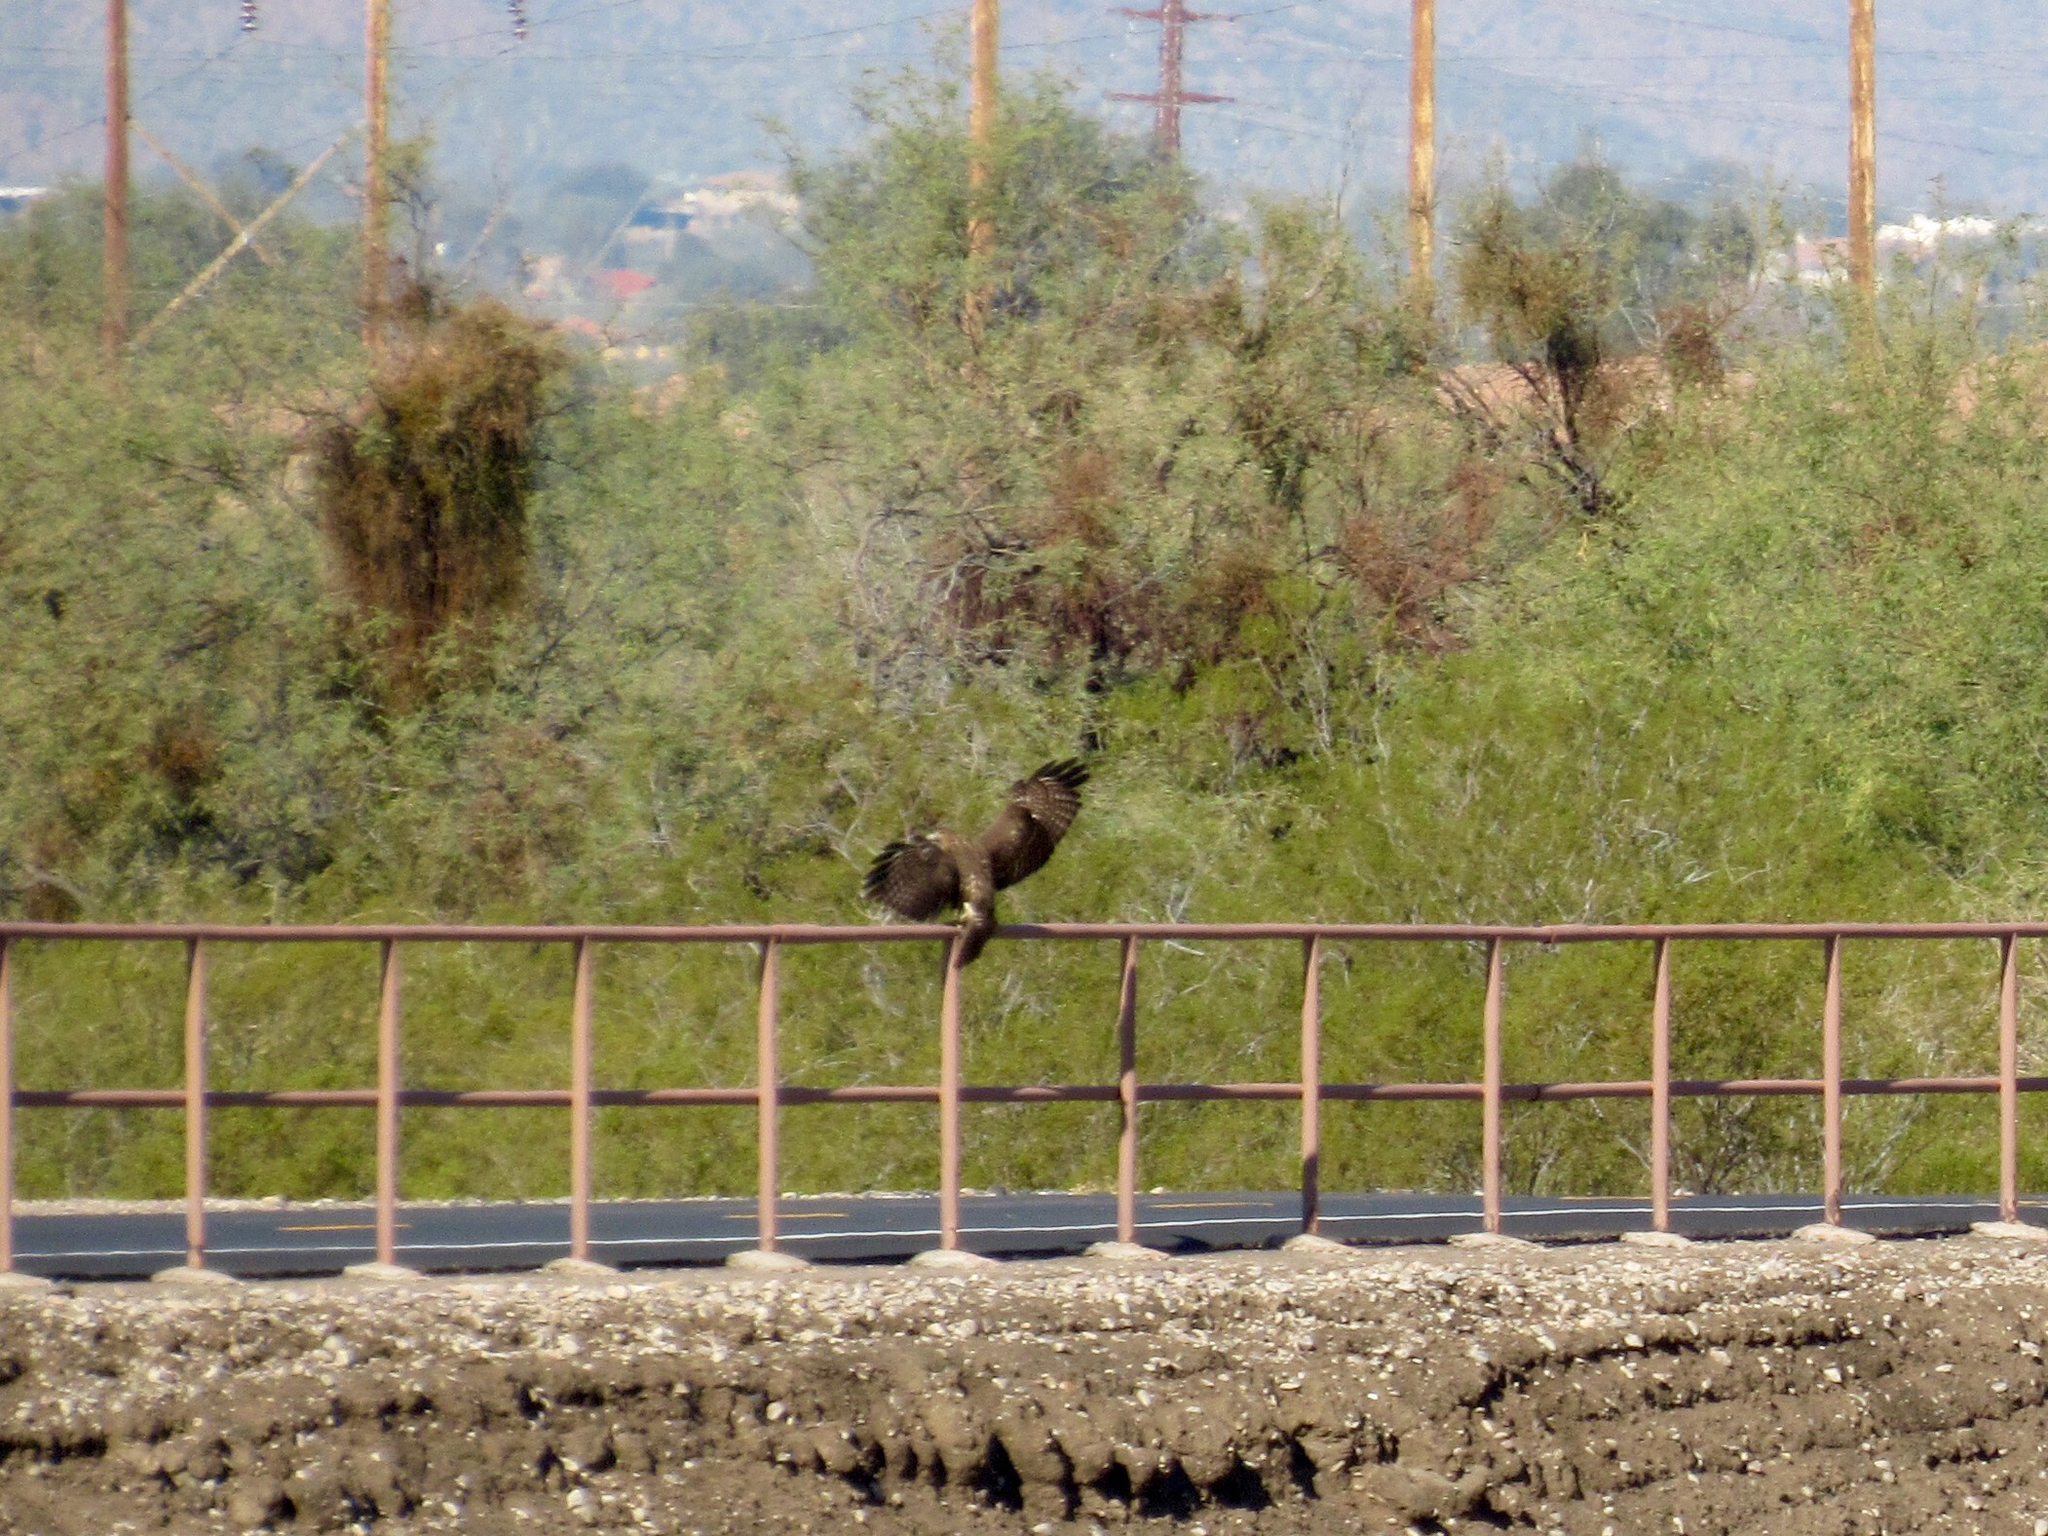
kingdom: Animalia
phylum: Chordata
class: Aves
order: Accipitriformes
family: Accipitridae
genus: Buteo
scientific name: Buteo jamaicensis
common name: Red-tailed hawk
